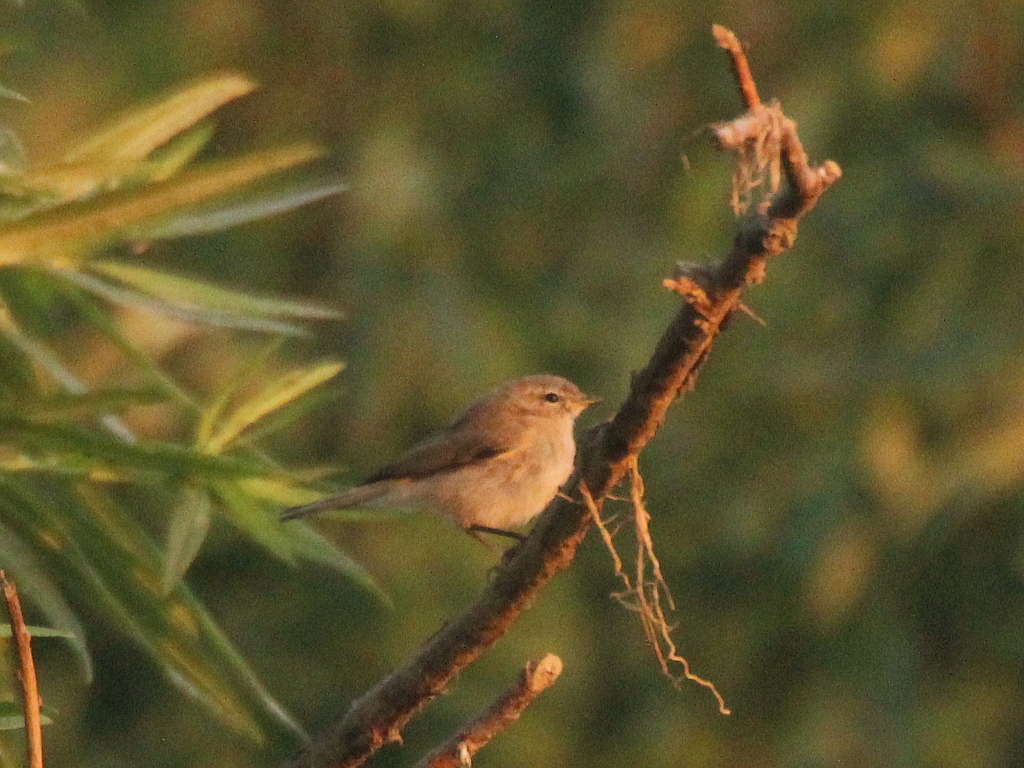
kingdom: Animalia
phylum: Chordata
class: Aves
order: Passeriformes
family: Phylloscopidae
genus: Phylloscopus
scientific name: Phylloscopus collybita
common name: Common chiffchaff
